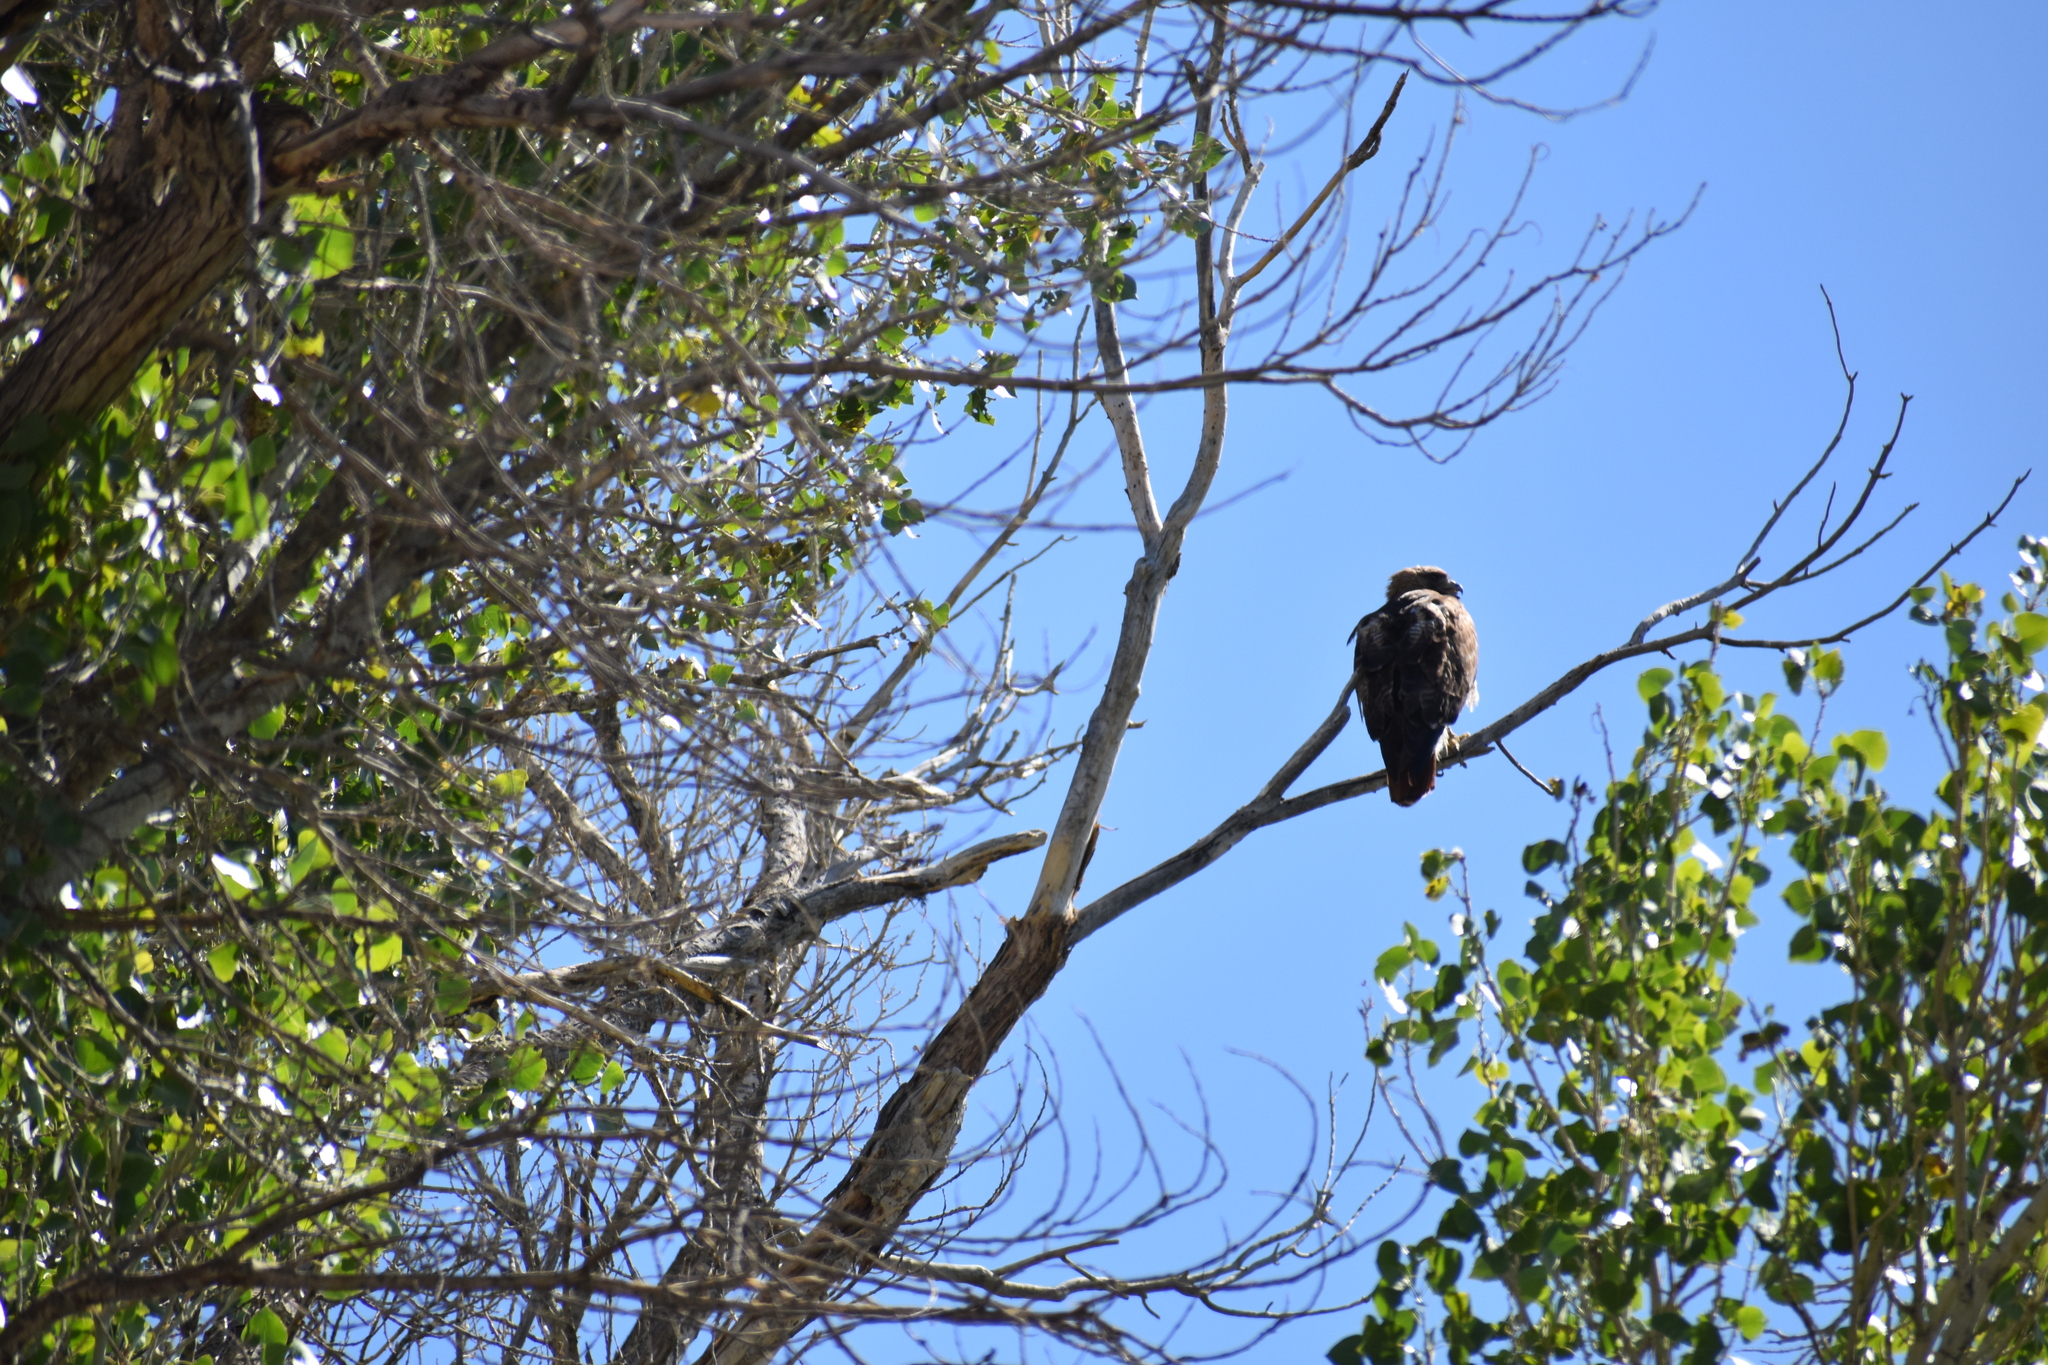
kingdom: Animalia
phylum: Chordata
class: Aves
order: Accipitriformes
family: Accipitridae
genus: Buteo
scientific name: Buteo jamaicensis
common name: Red-tailed hawk
